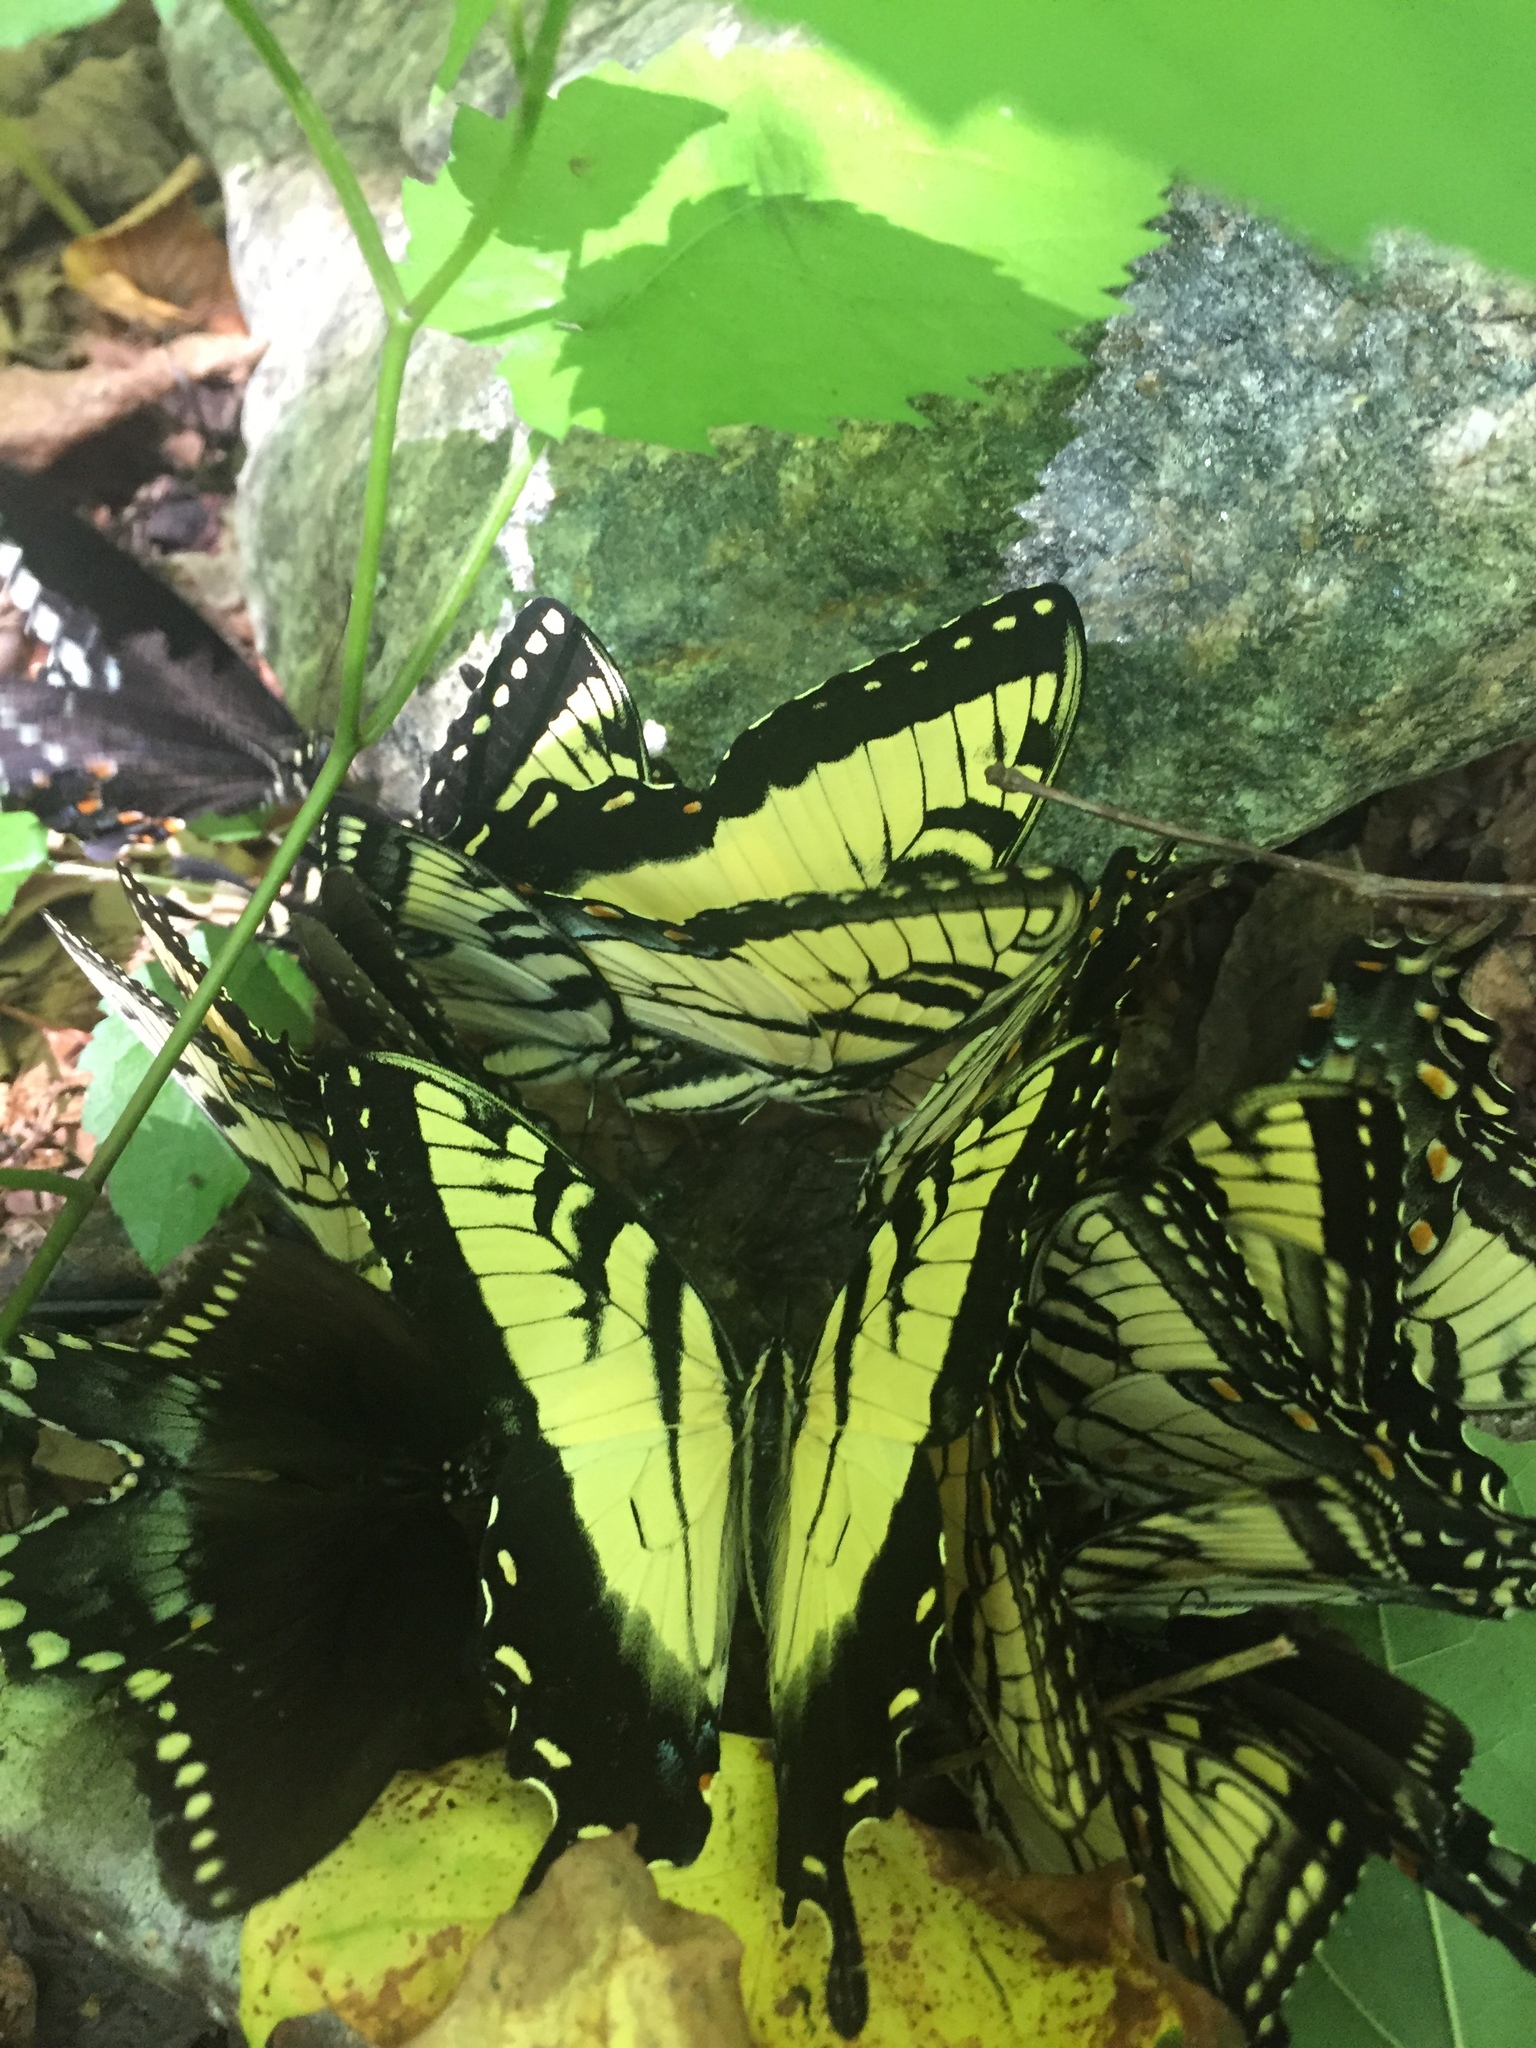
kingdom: Animalia
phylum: Arthropoda
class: Insecta
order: Lepidoptera
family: Papilionidae
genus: Papilio
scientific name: Papilio glaucus
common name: Tiger swallowtail
